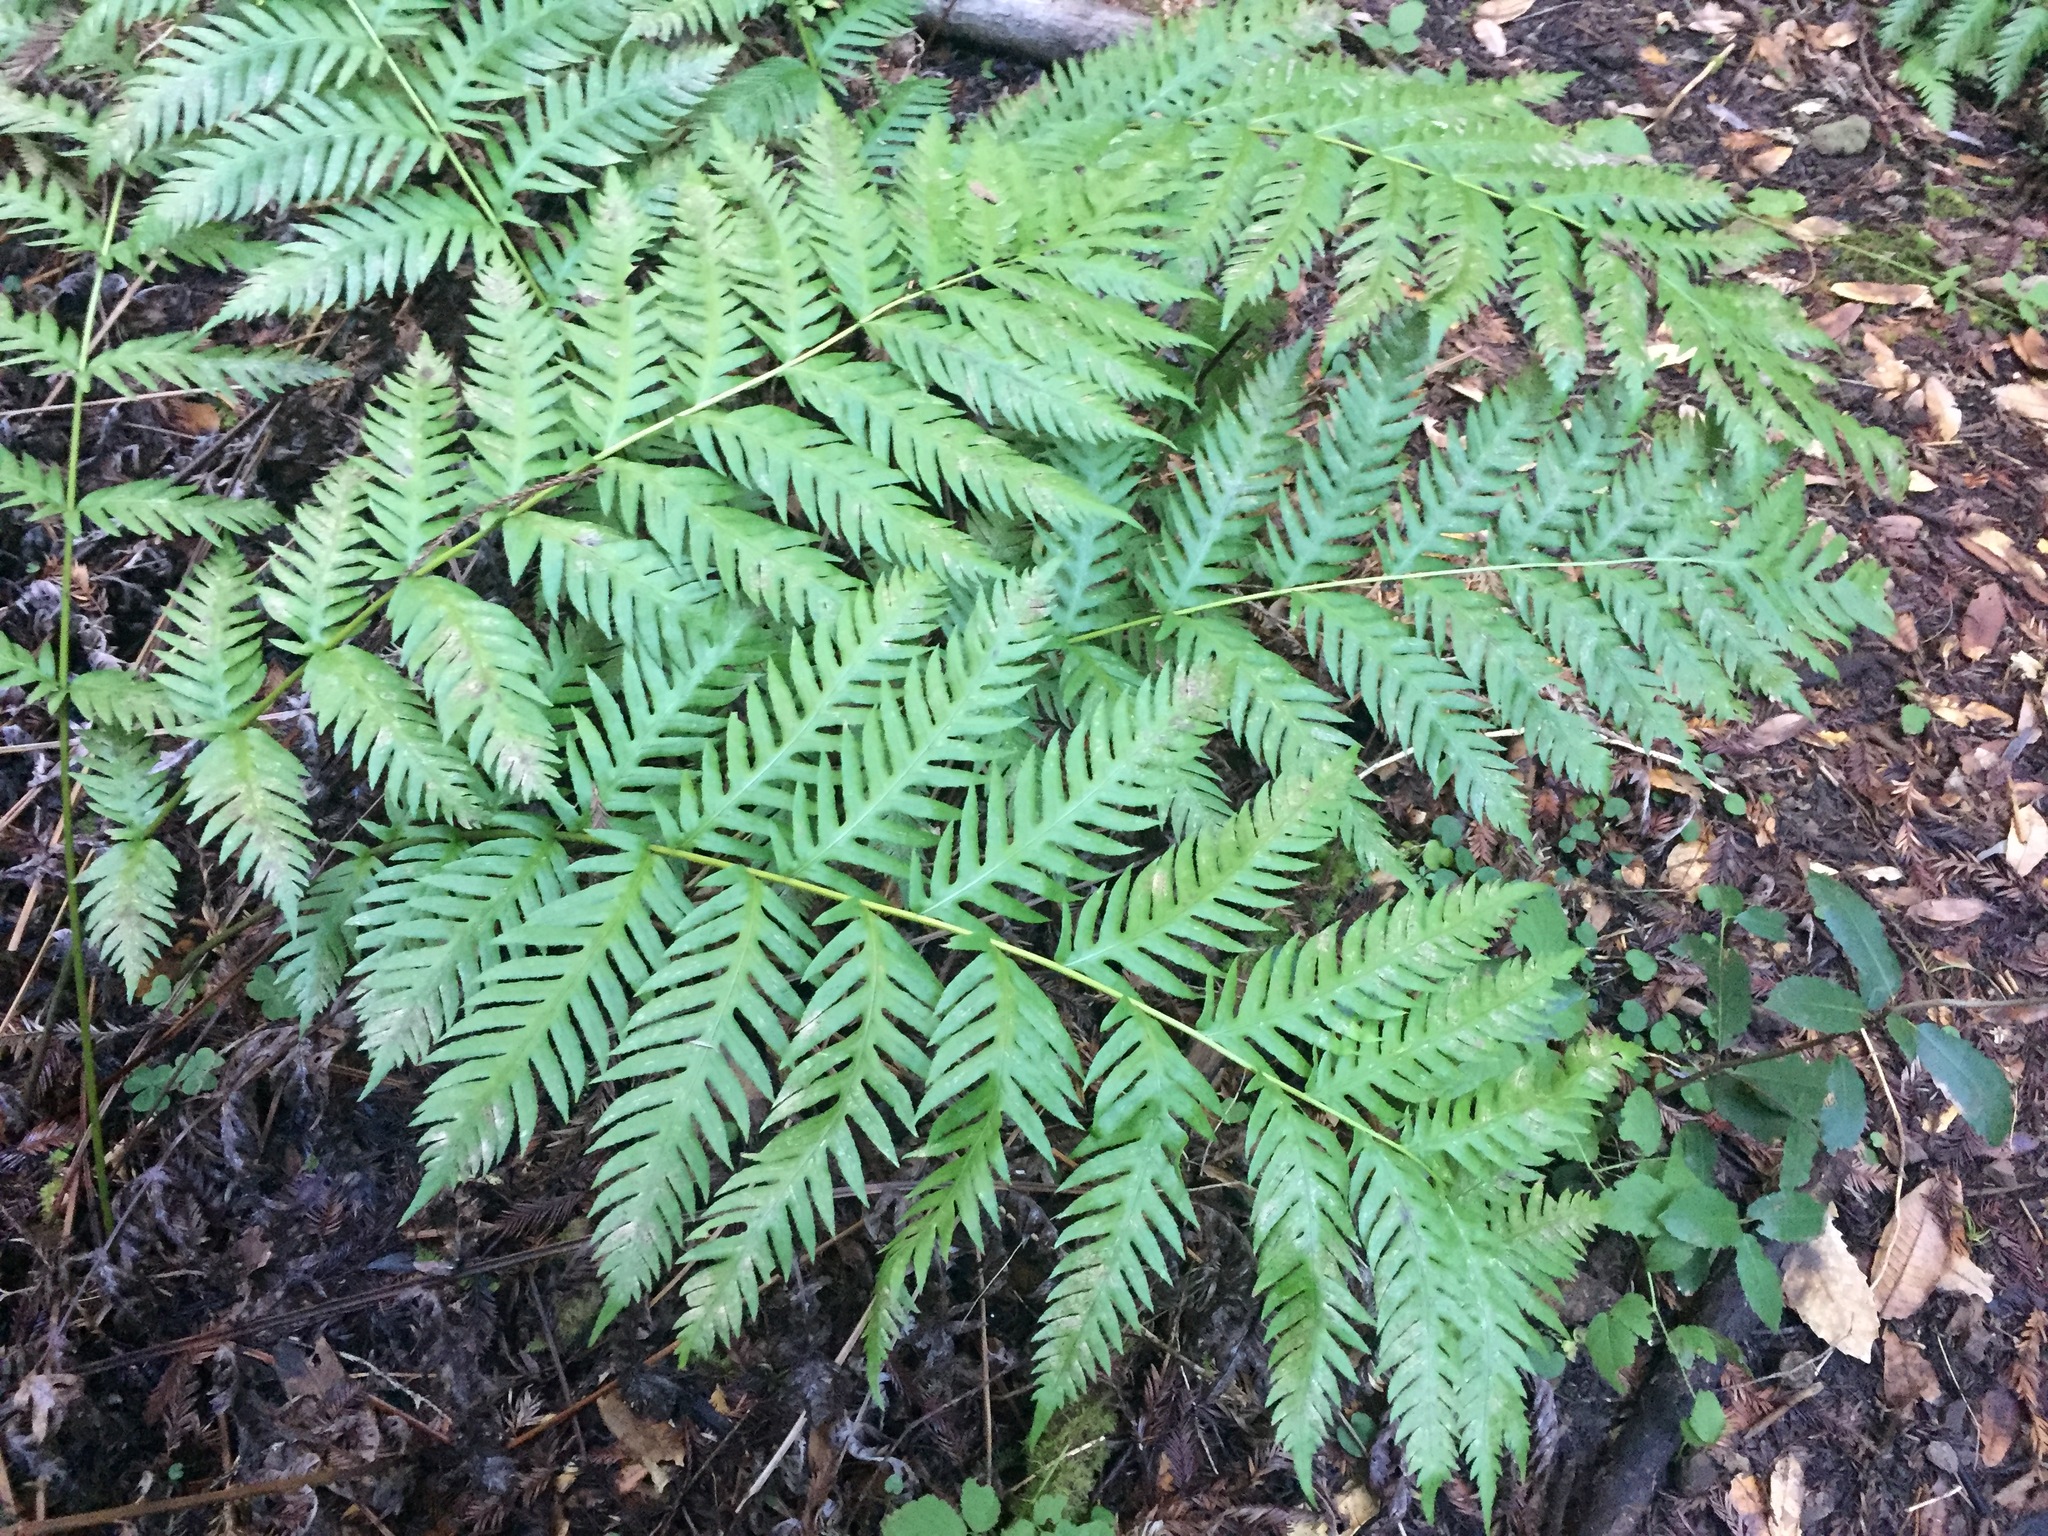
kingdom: Plantae
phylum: Tracheophyta
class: Polypodiopsida
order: Polypodiales
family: Blechnaceae
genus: Woodwardia
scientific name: Woodwardia fimbriata
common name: Giant chain fern
